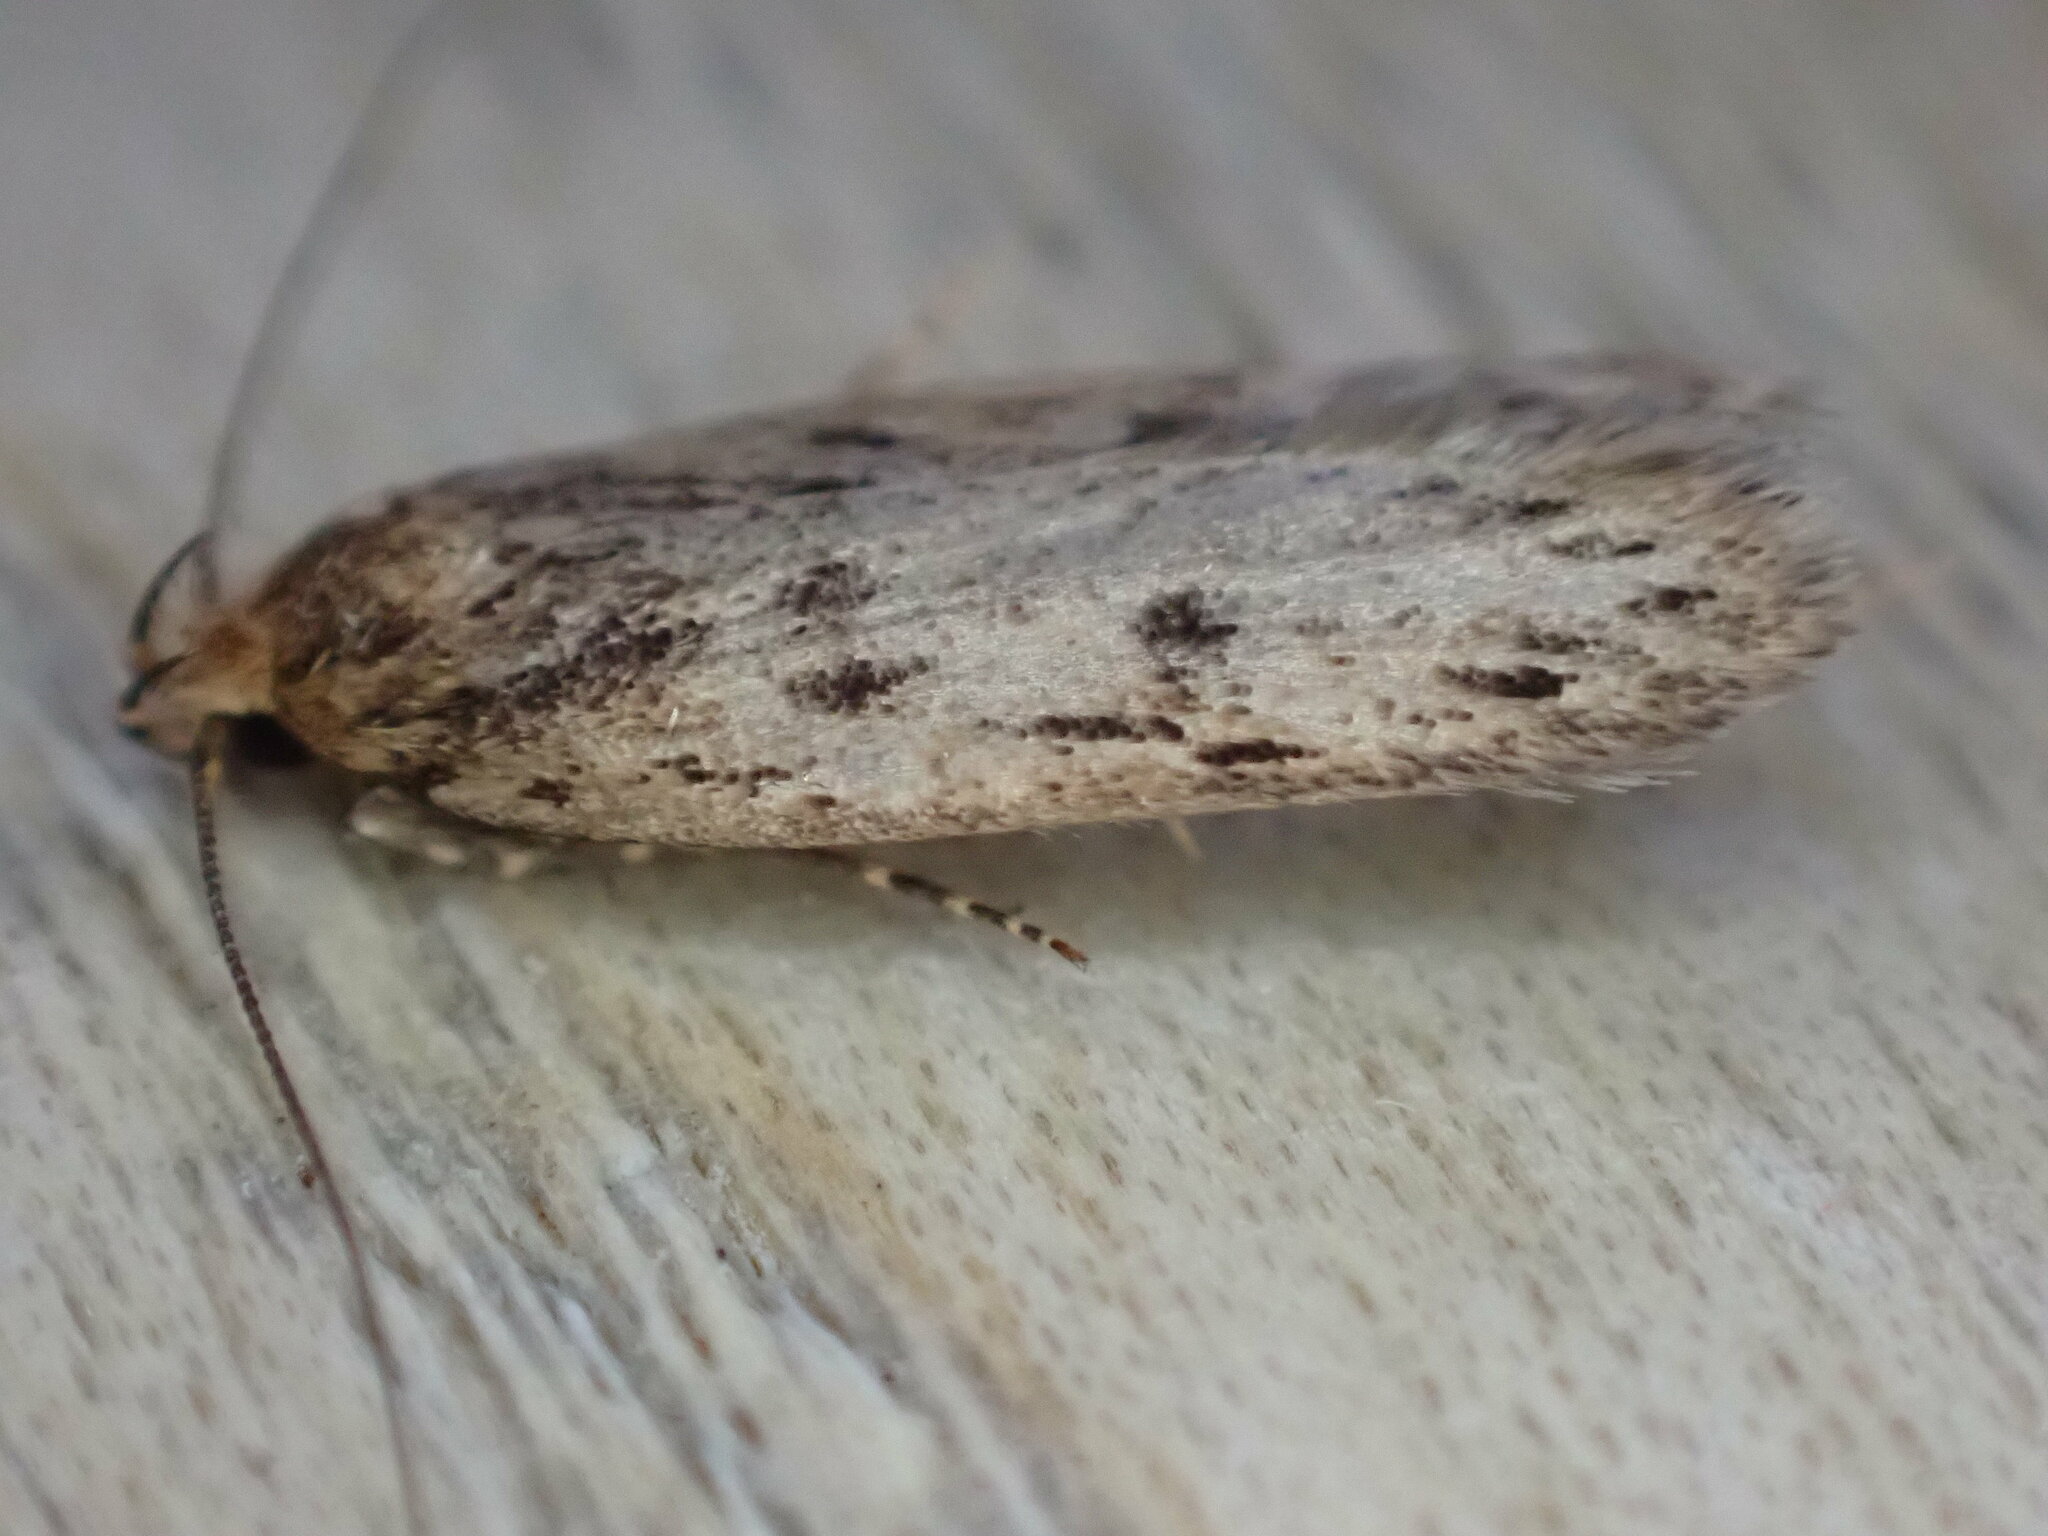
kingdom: Animalia
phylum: Arthropoda
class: Insecta
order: Lepidoptera
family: Oecophoridae
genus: Hofmannophila
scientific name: Hofmannophila pseudospretella
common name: Brown house moth
